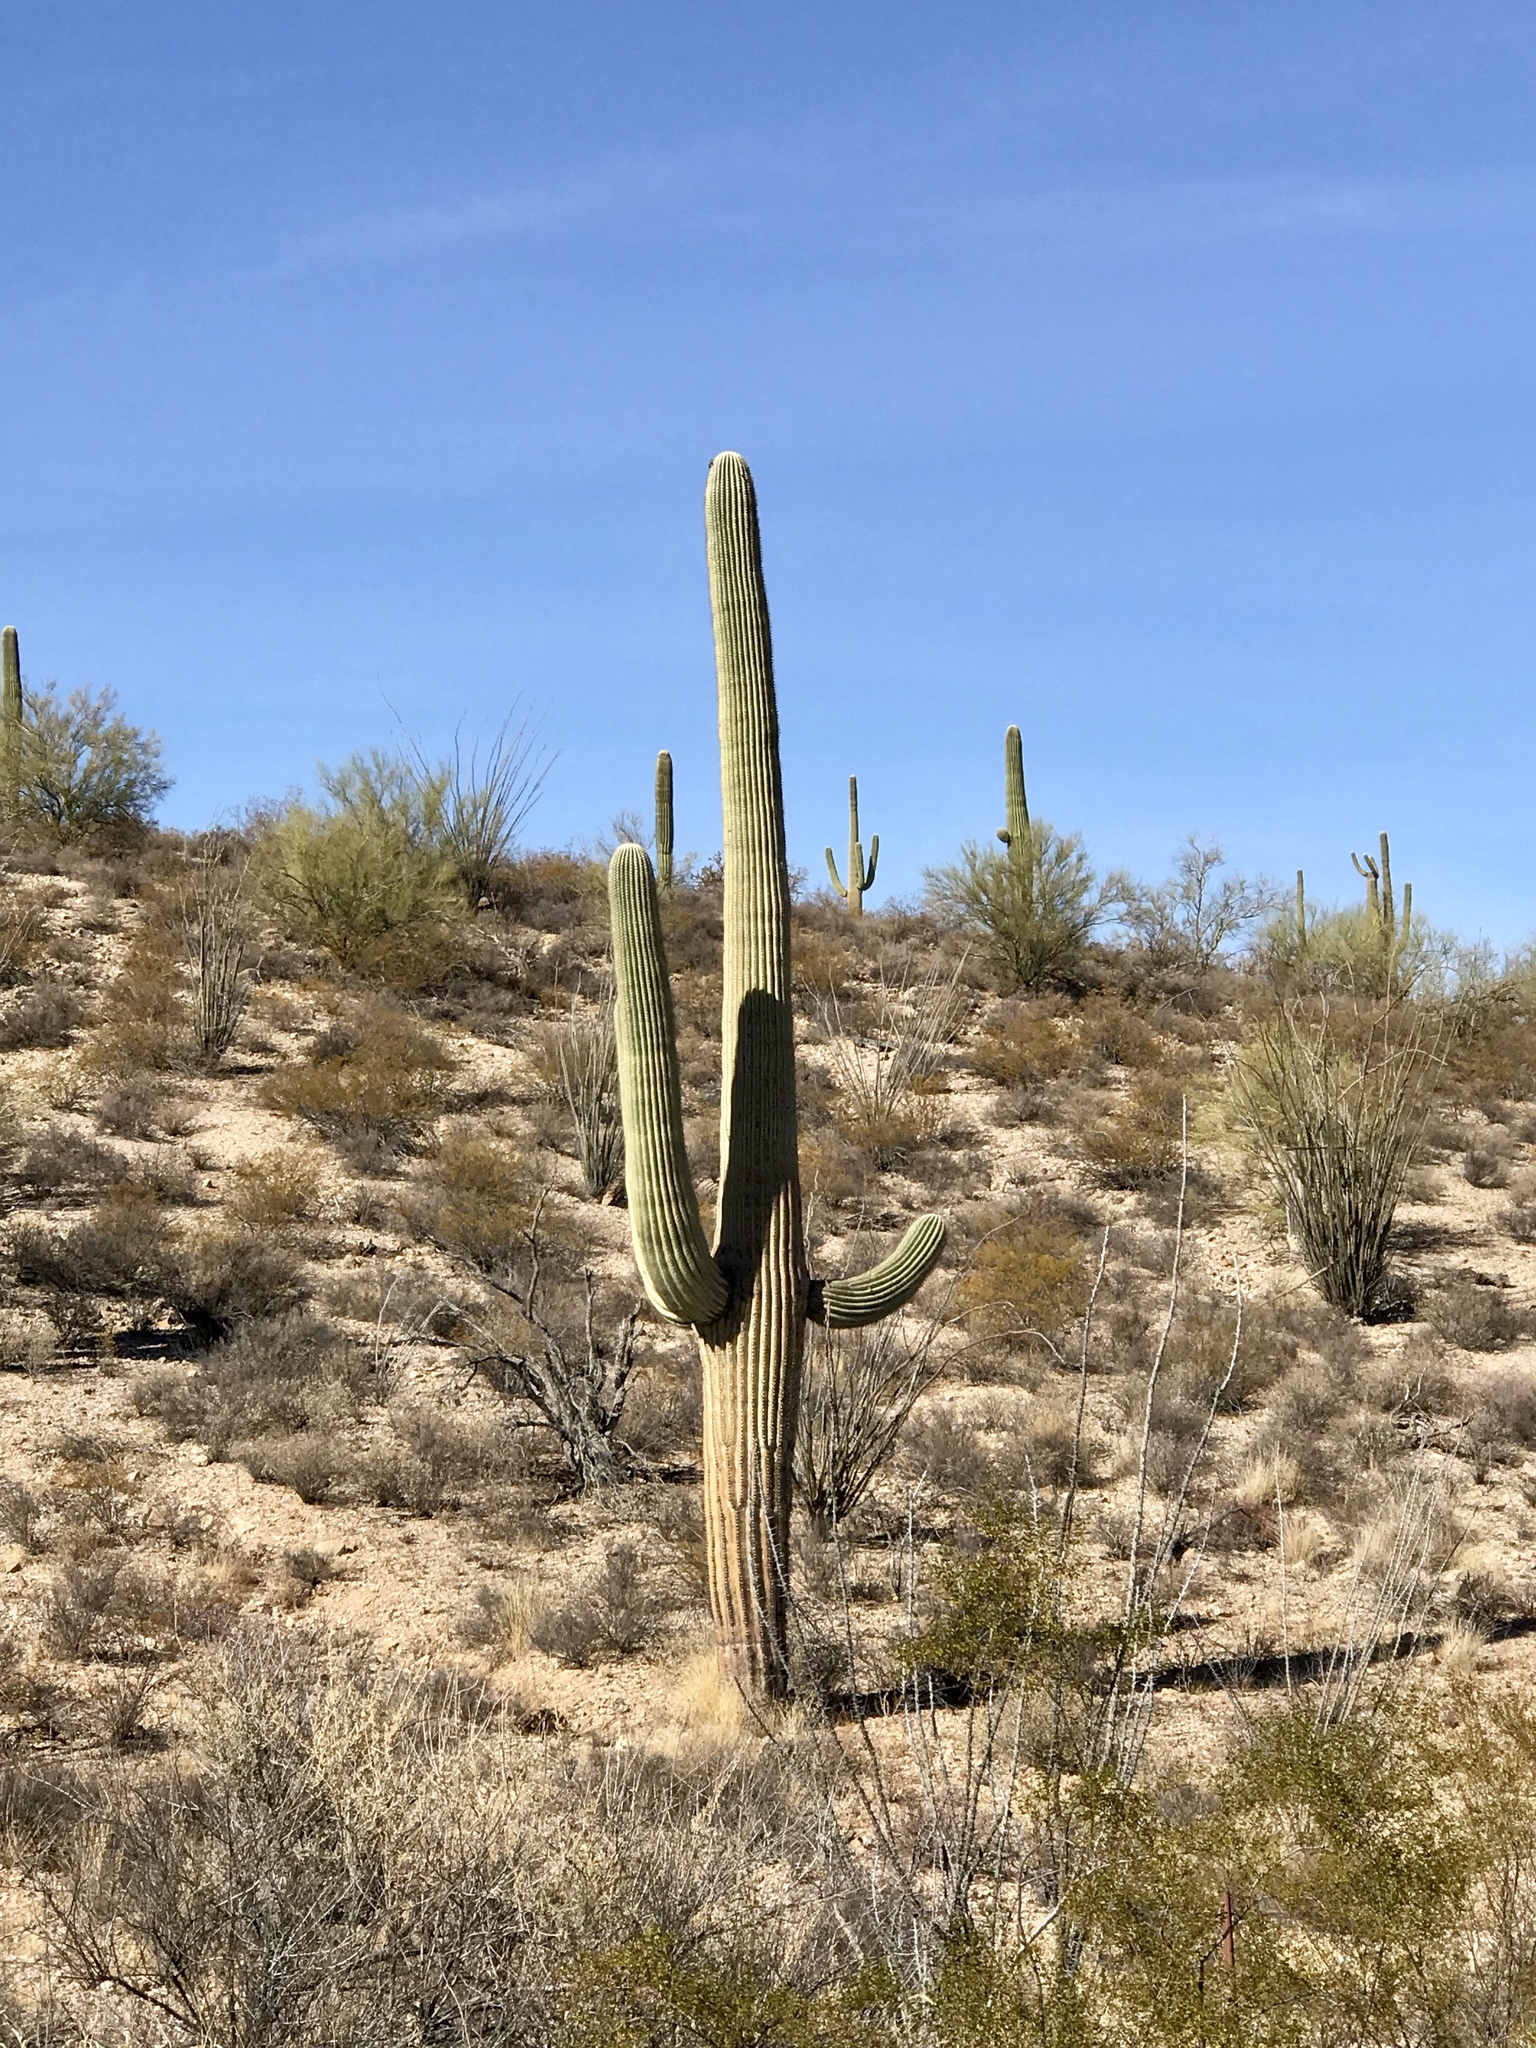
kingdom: Plantae
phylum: Tracheophyta
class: Magnoliopsida
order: Caryophyllales
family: Cactaceae
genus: Carnegiea
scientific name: Carnegiea gigantea
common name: Saguaro
